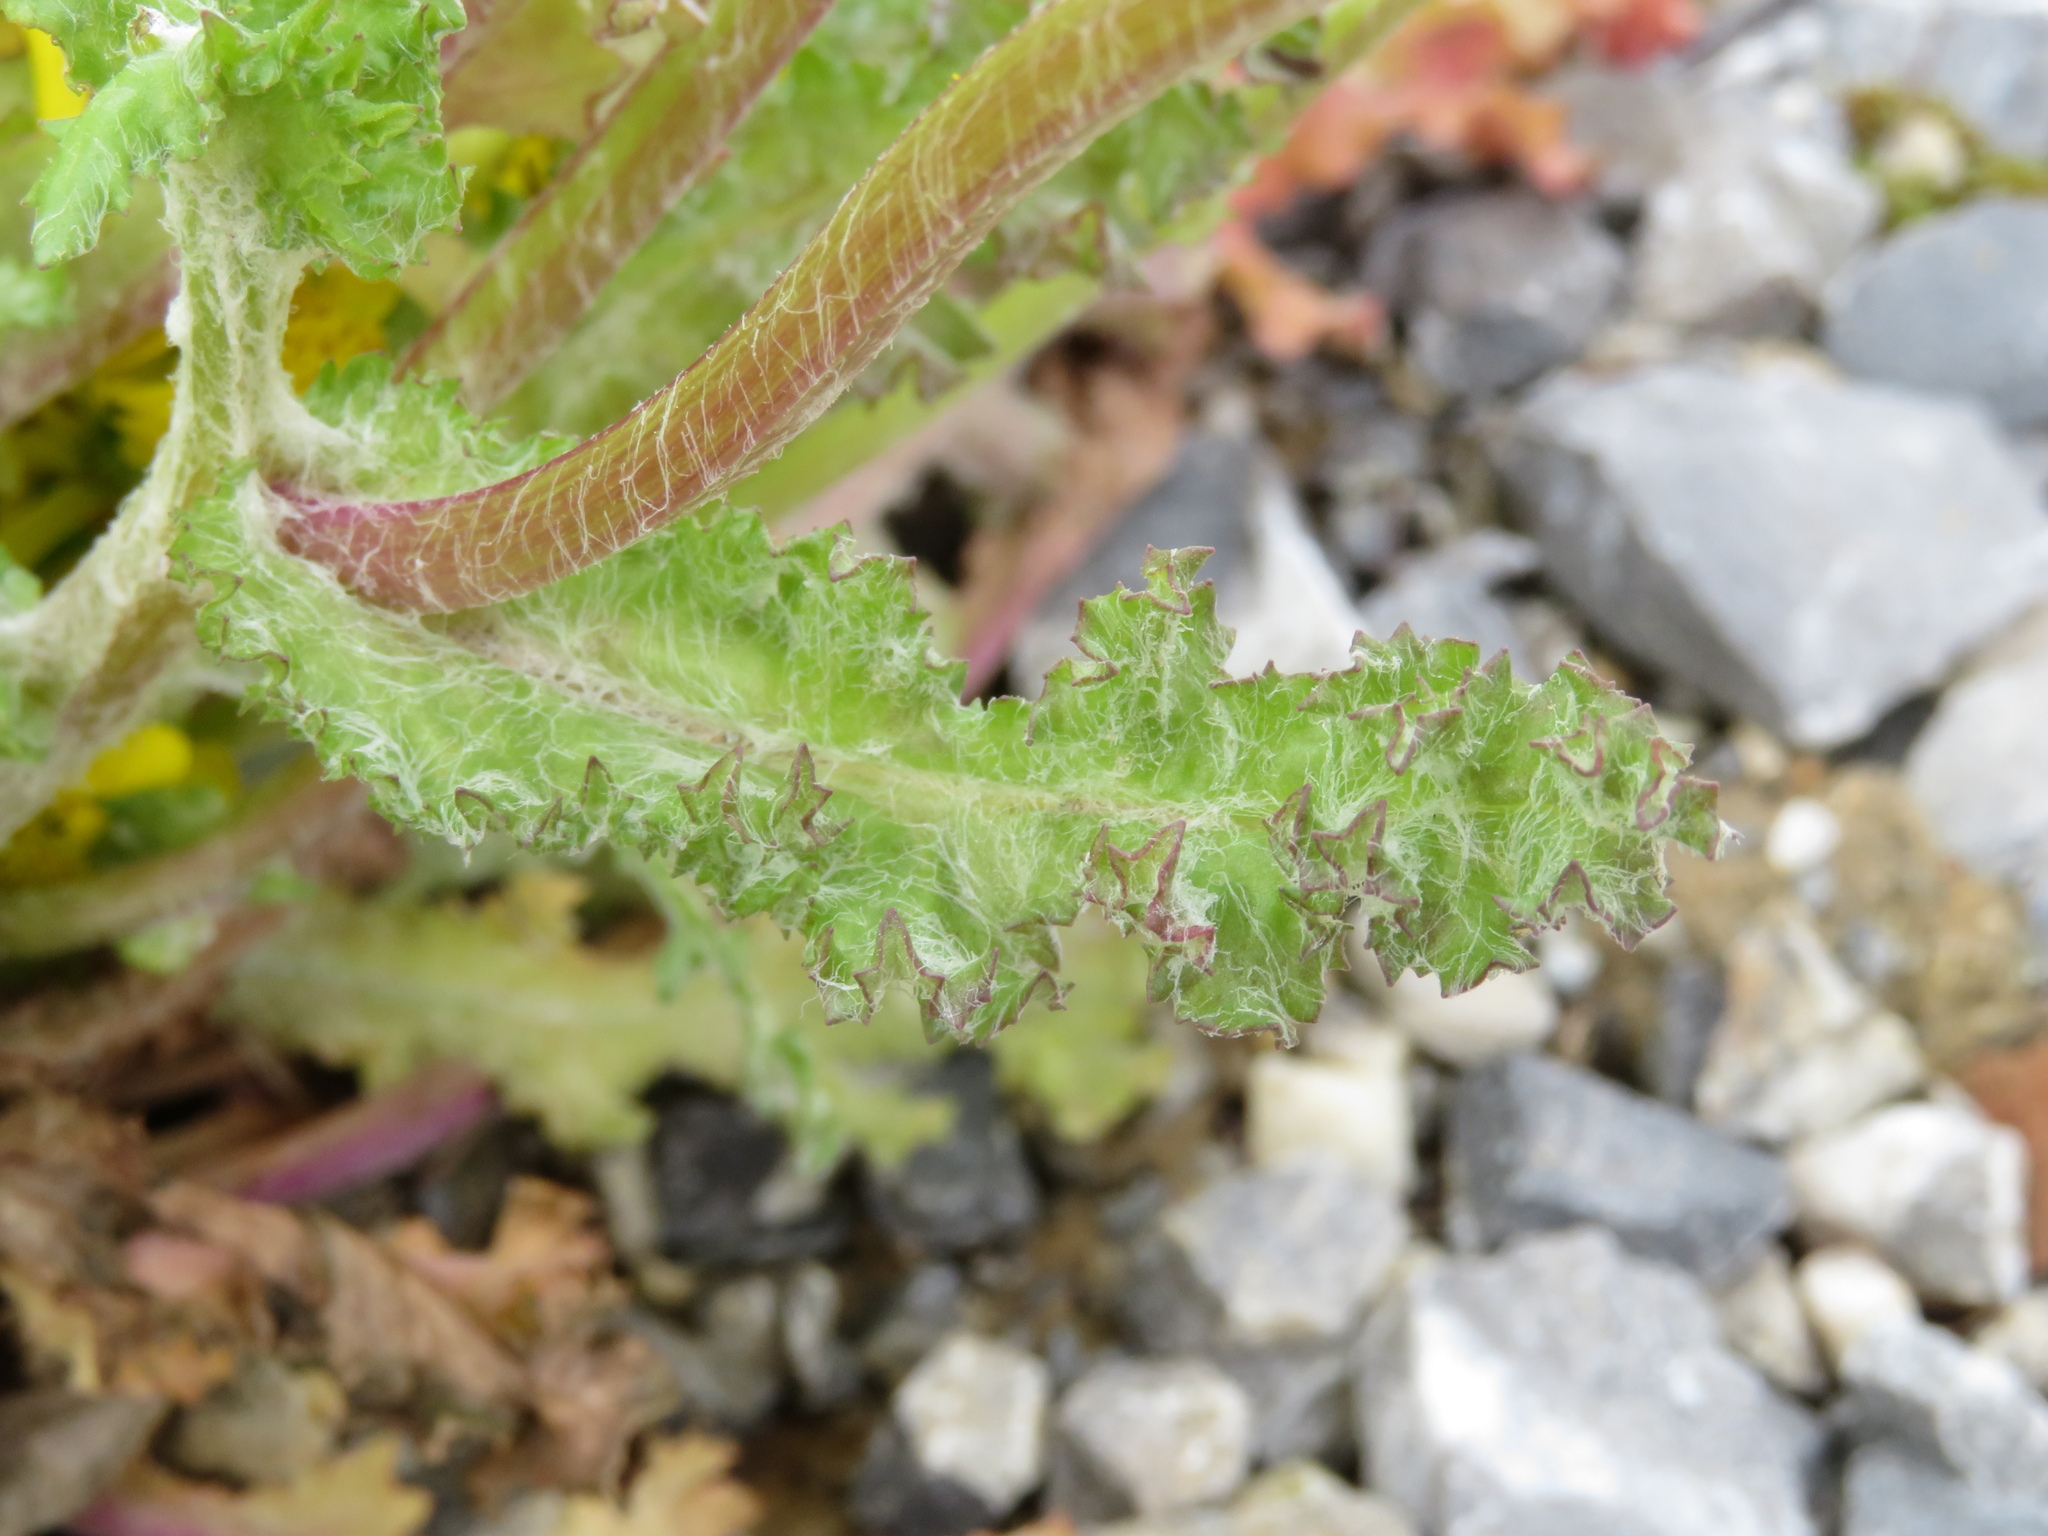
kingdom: Plantae
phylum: Tracheophyta
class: Magnoliopsida
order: Asterales
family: Asteraceae
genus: Senecio
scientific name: Senecio vernalis
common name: Eastern groundsel
